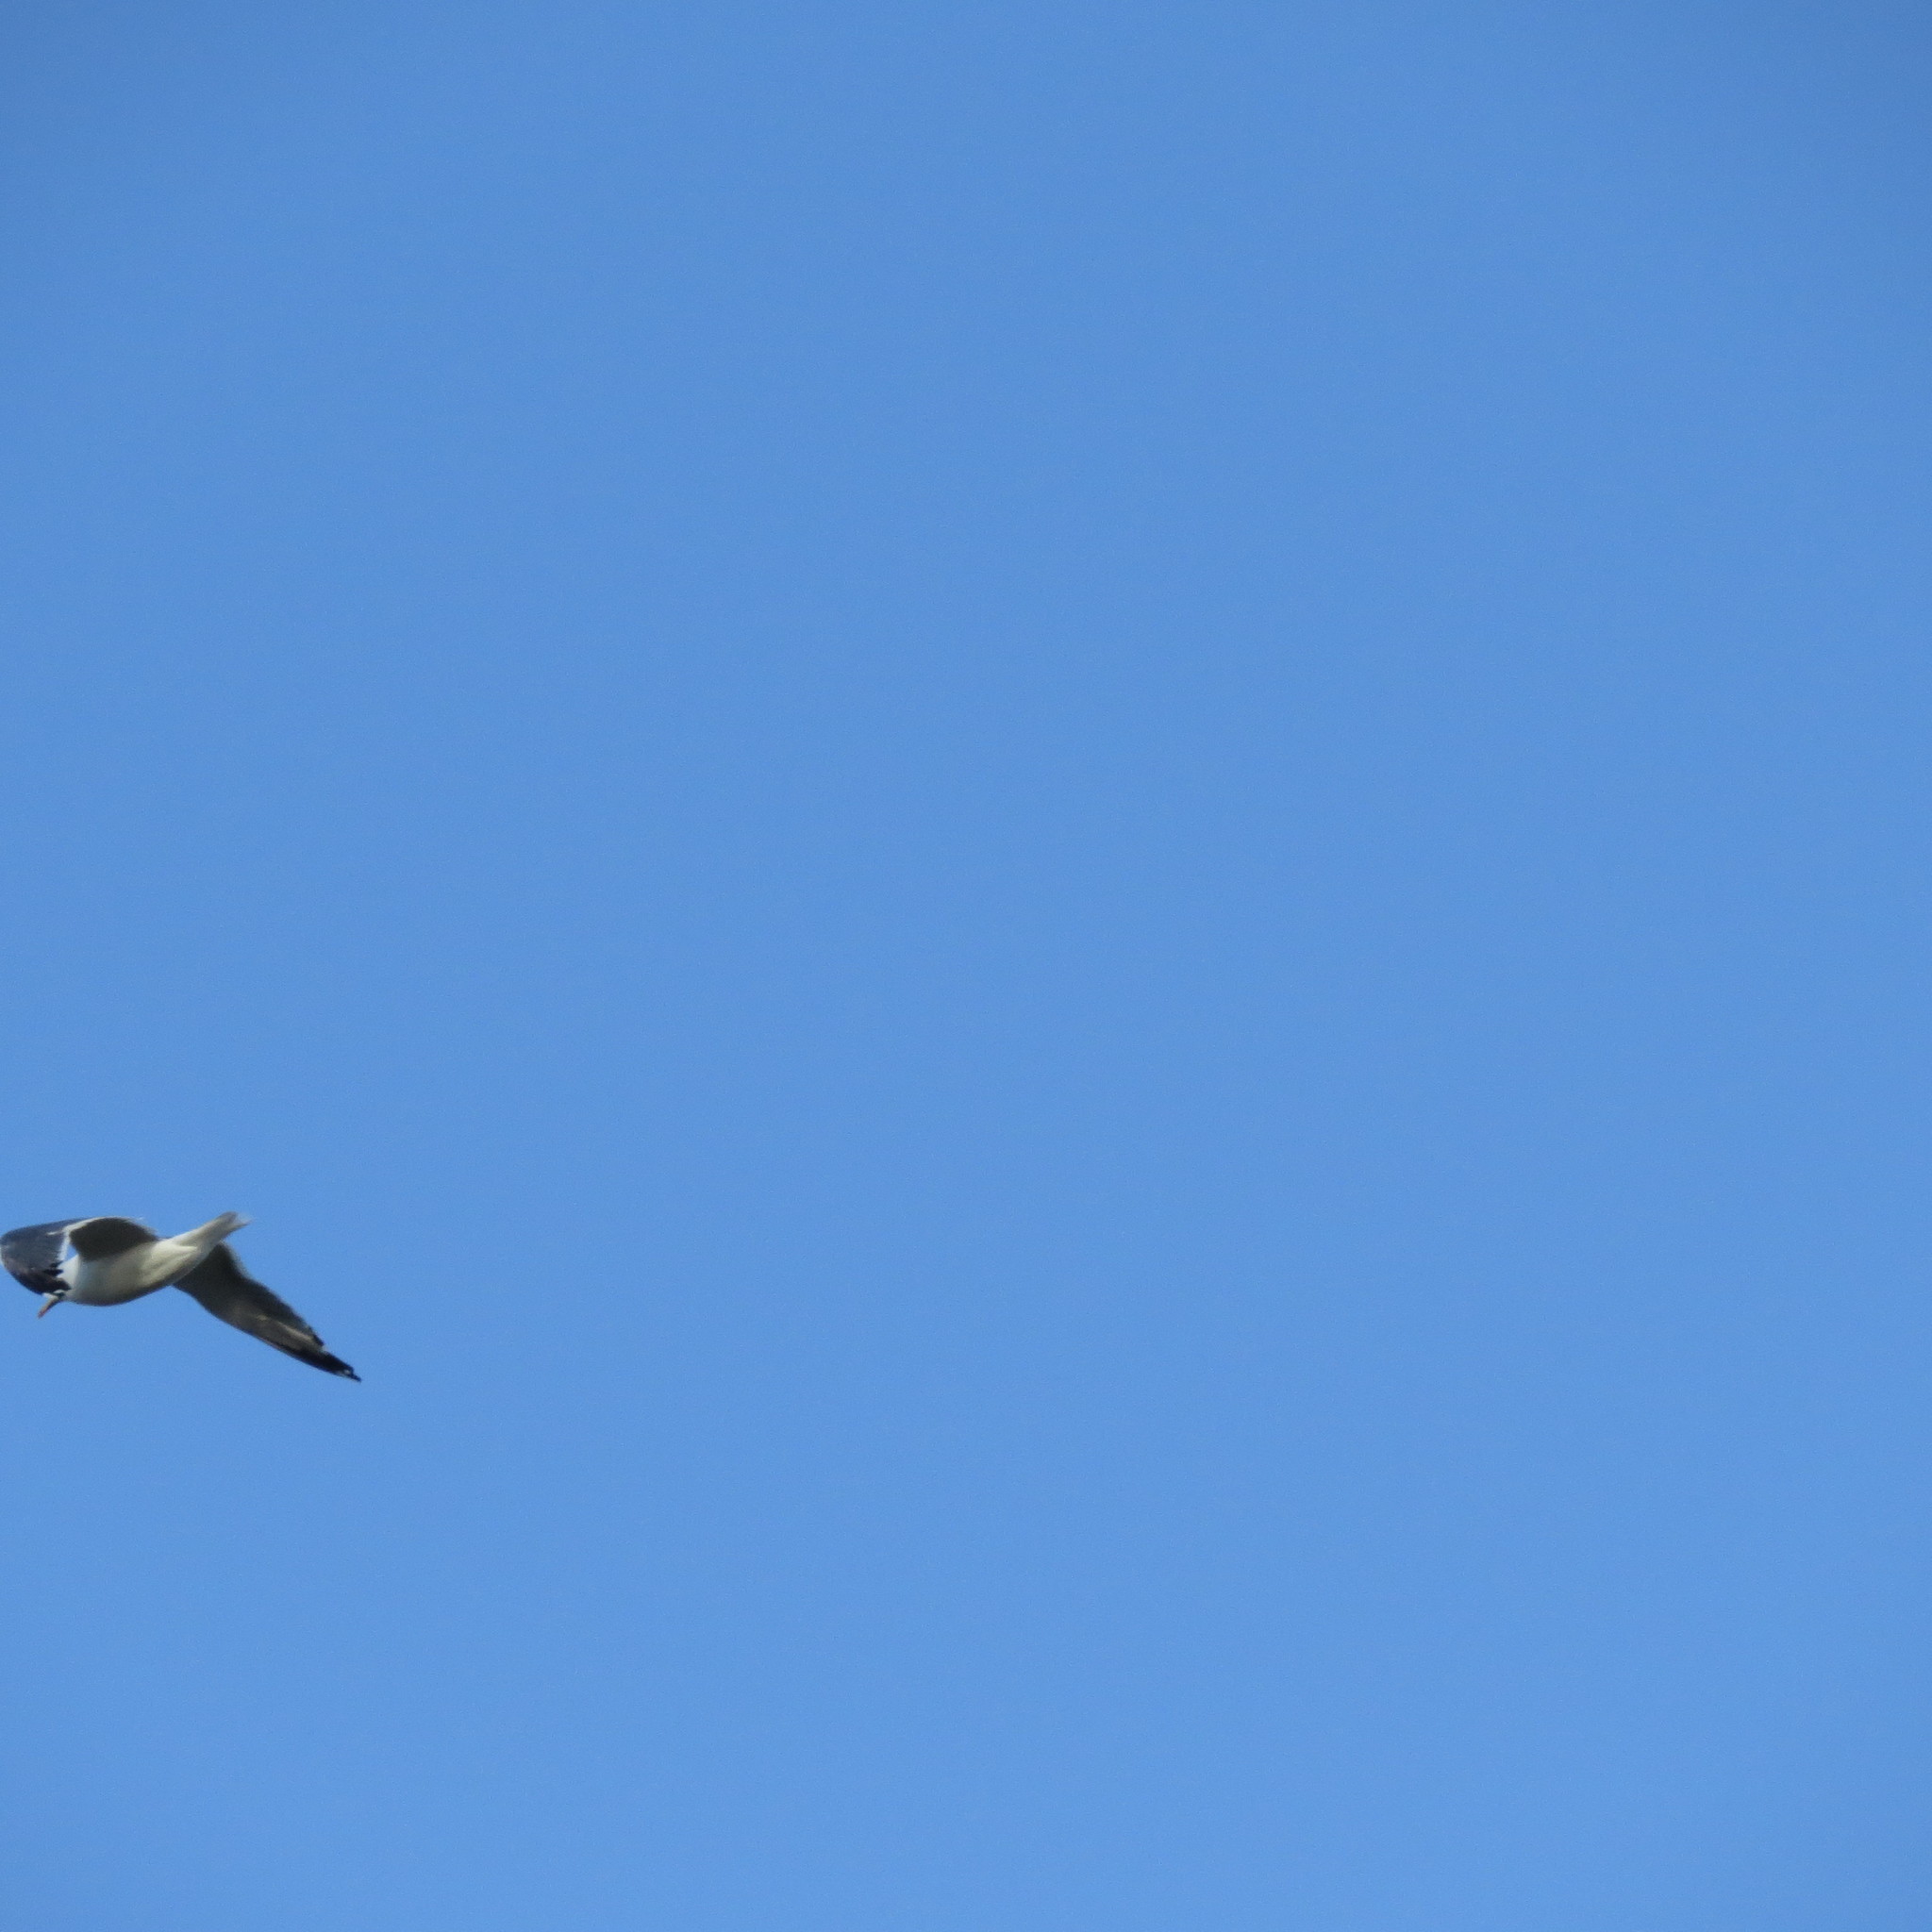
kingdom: Animalia
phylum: Chordata
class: Aves
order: Charadriiformes
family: Laridae
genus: Larus
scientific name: Larus fuscus
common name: Lesser black-backed gull
